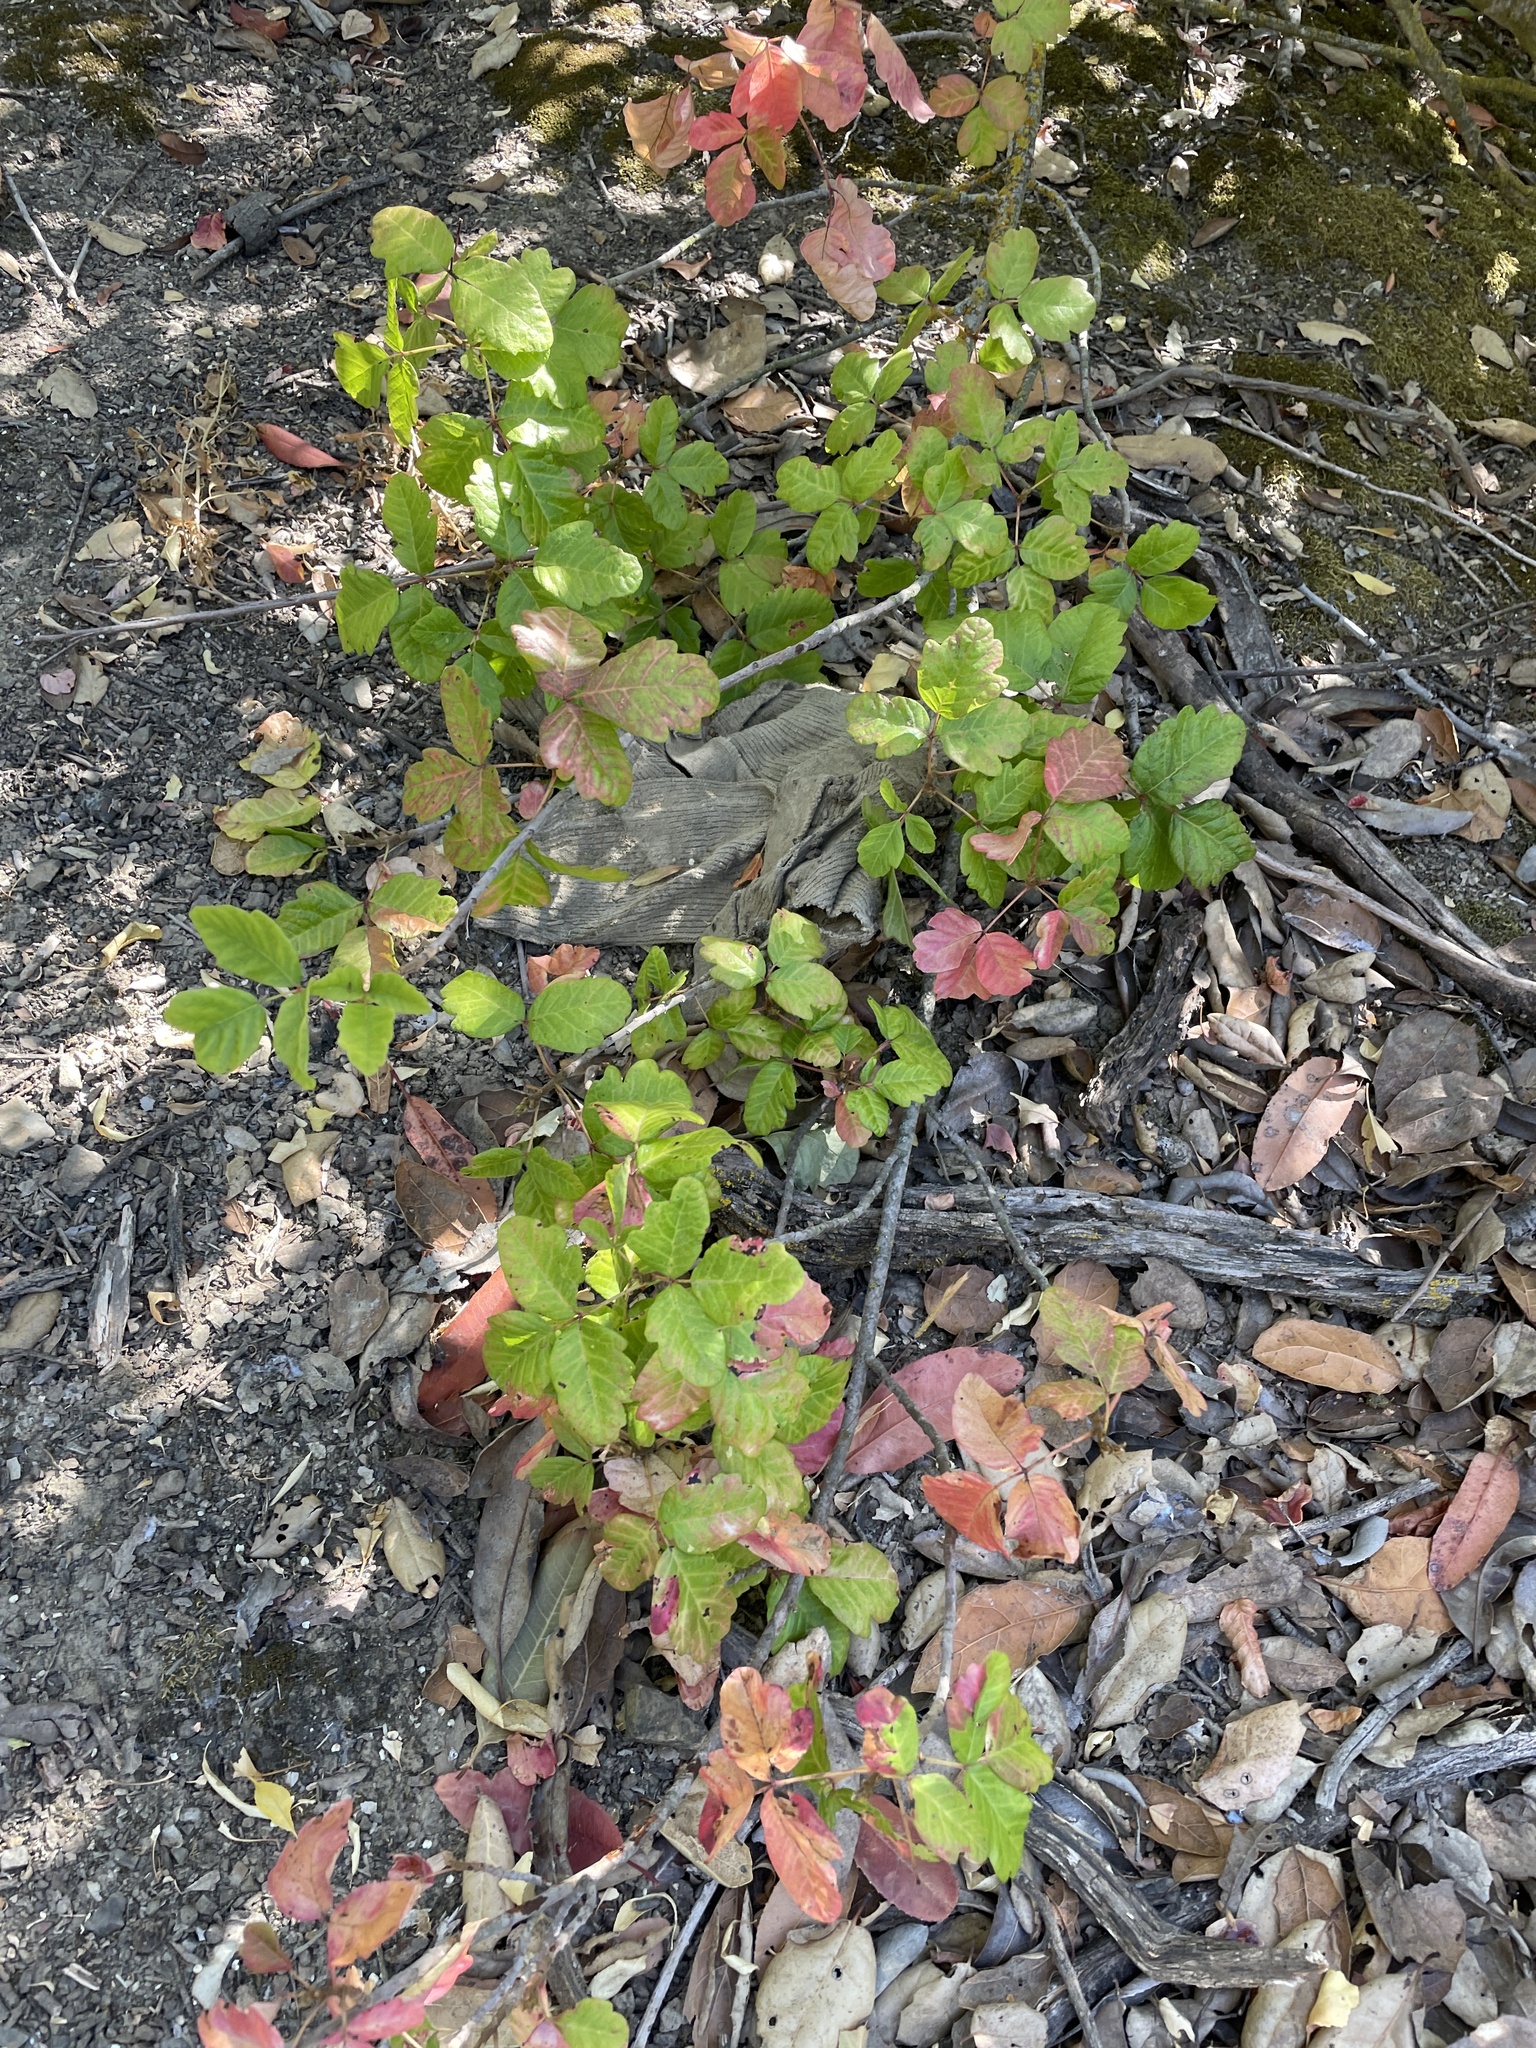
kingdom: Plantae
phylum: Tracheophyta
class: Magnoliopsida
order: Sapindales
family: Anacardiaceae
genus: Toxicodendron
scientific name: Toxicodendron diversilobum
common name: Pacific poison-oak
